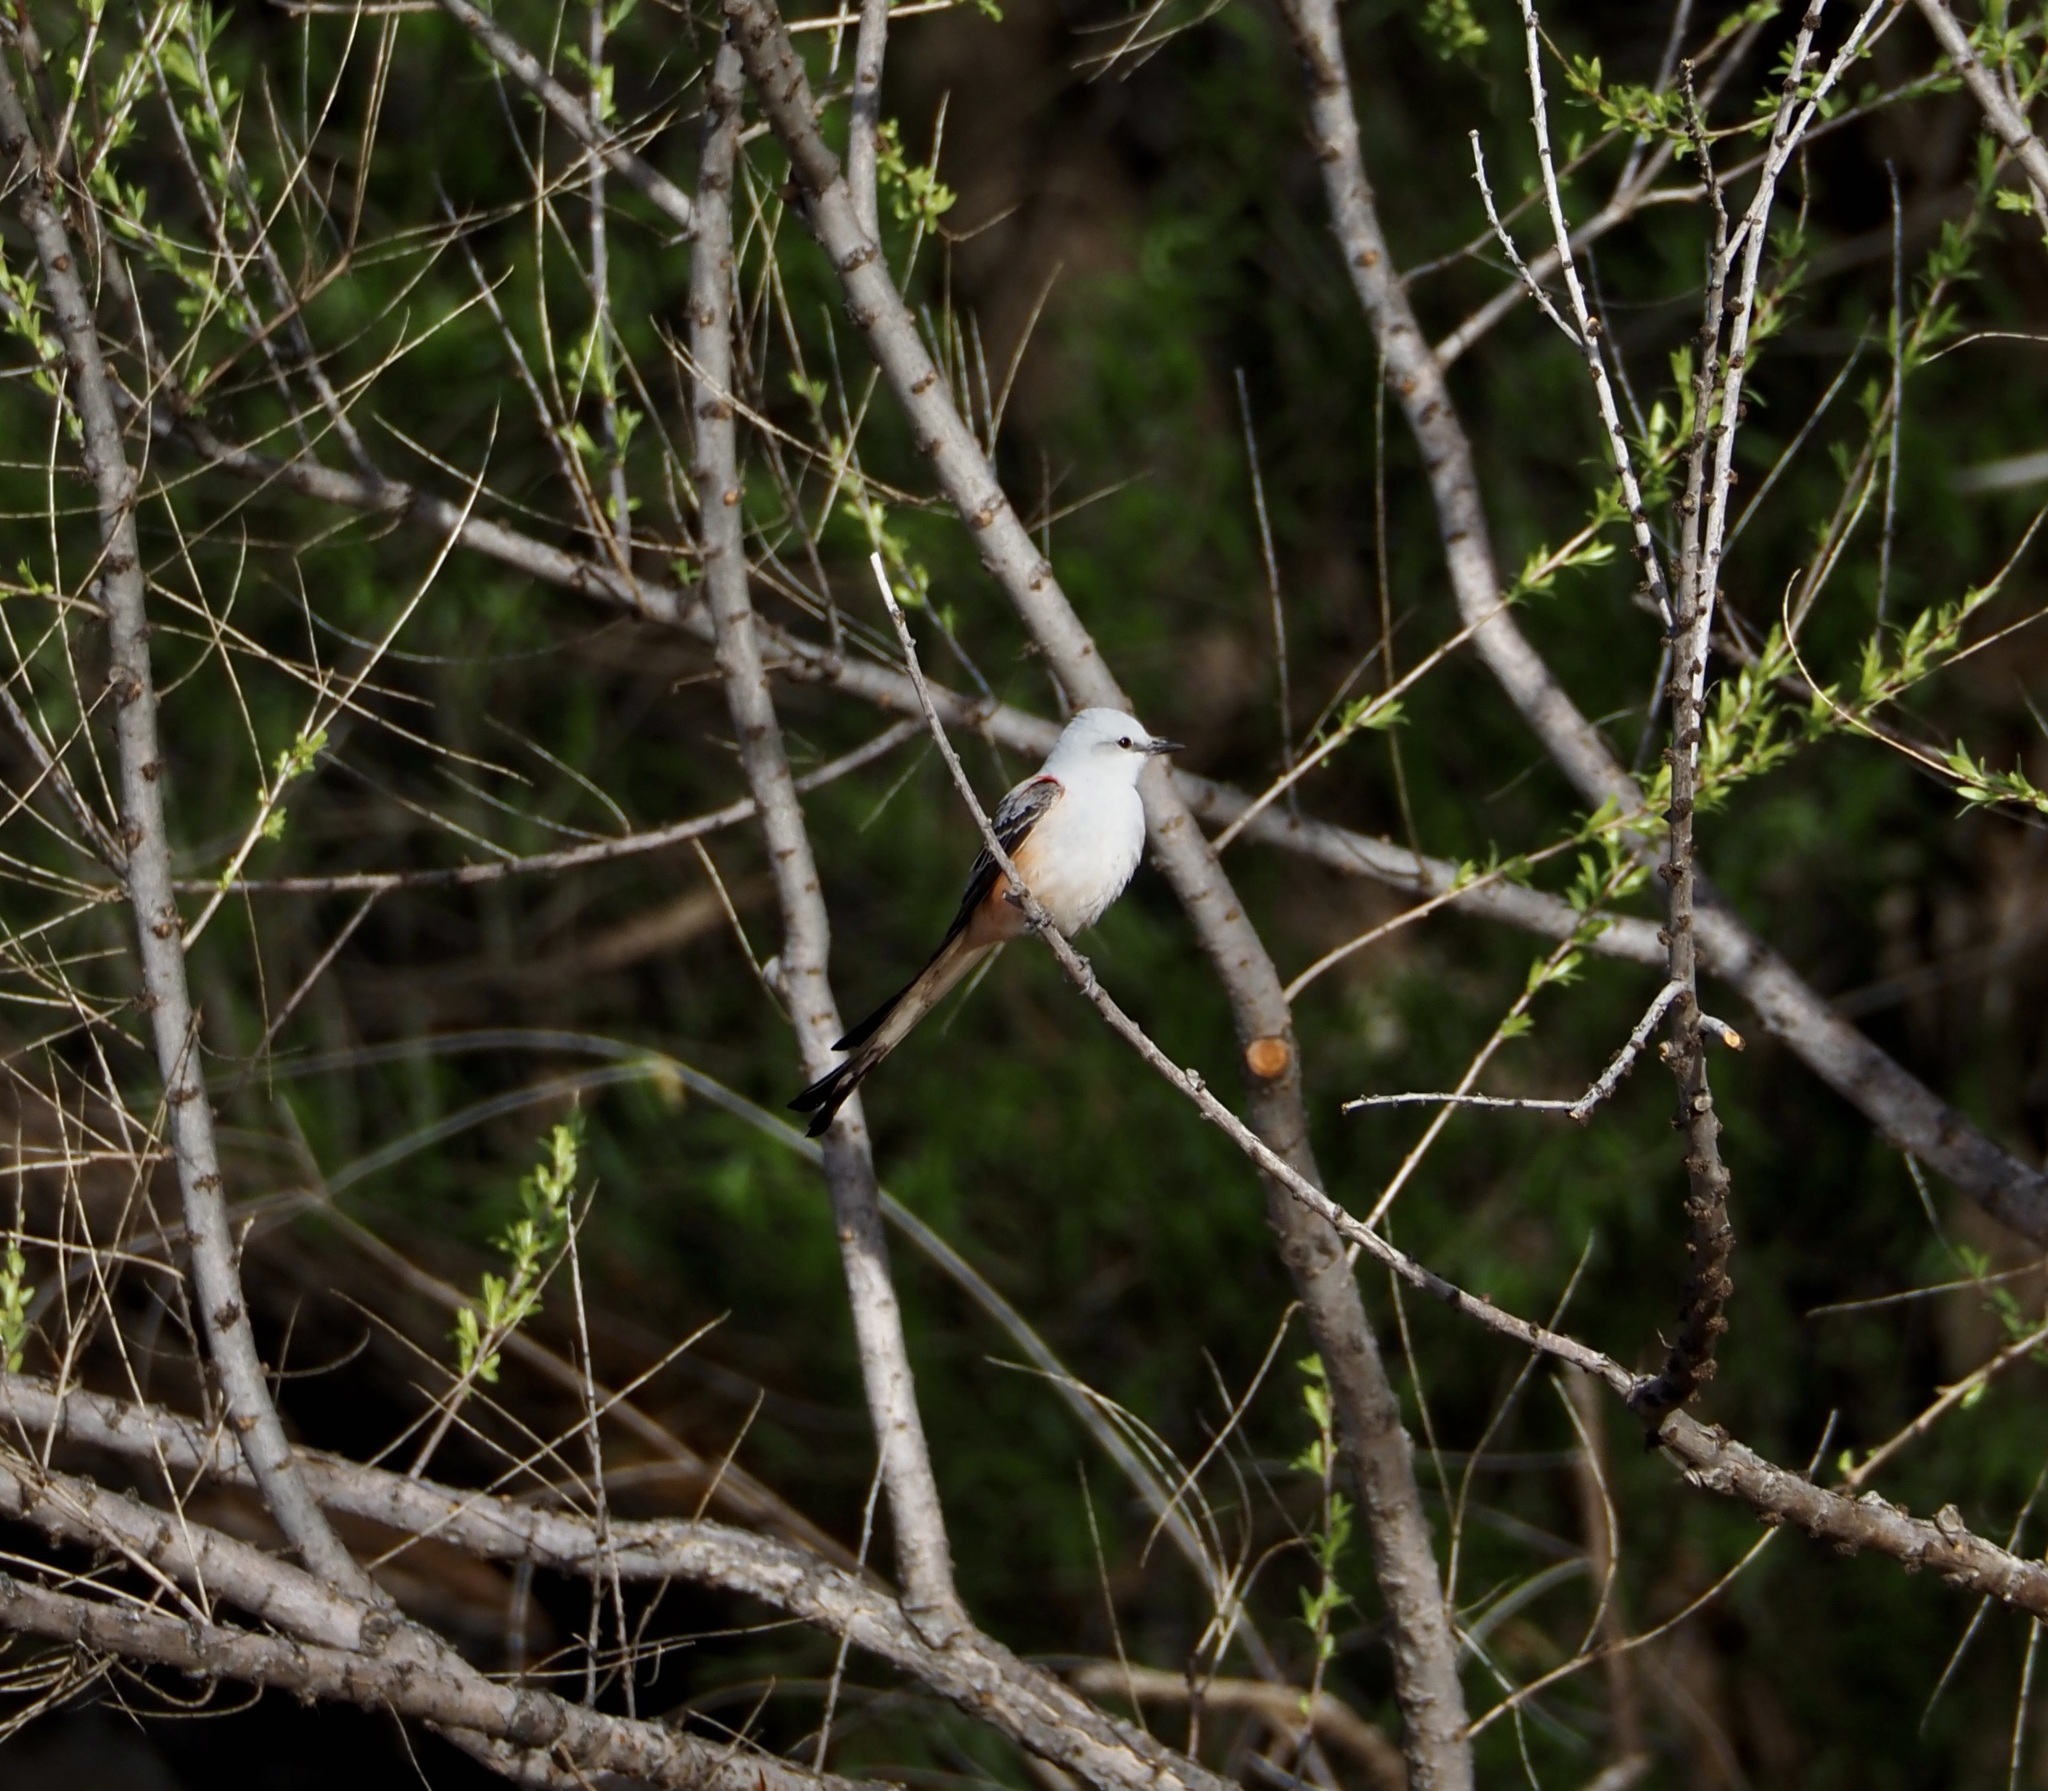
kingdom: Animalia
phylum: Chordata
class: Aves
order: Passeriformes
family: Tyrannidae
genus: Tyrannus
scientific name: Tyrannus forficatus
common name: Scissor-tailed flycatcher
